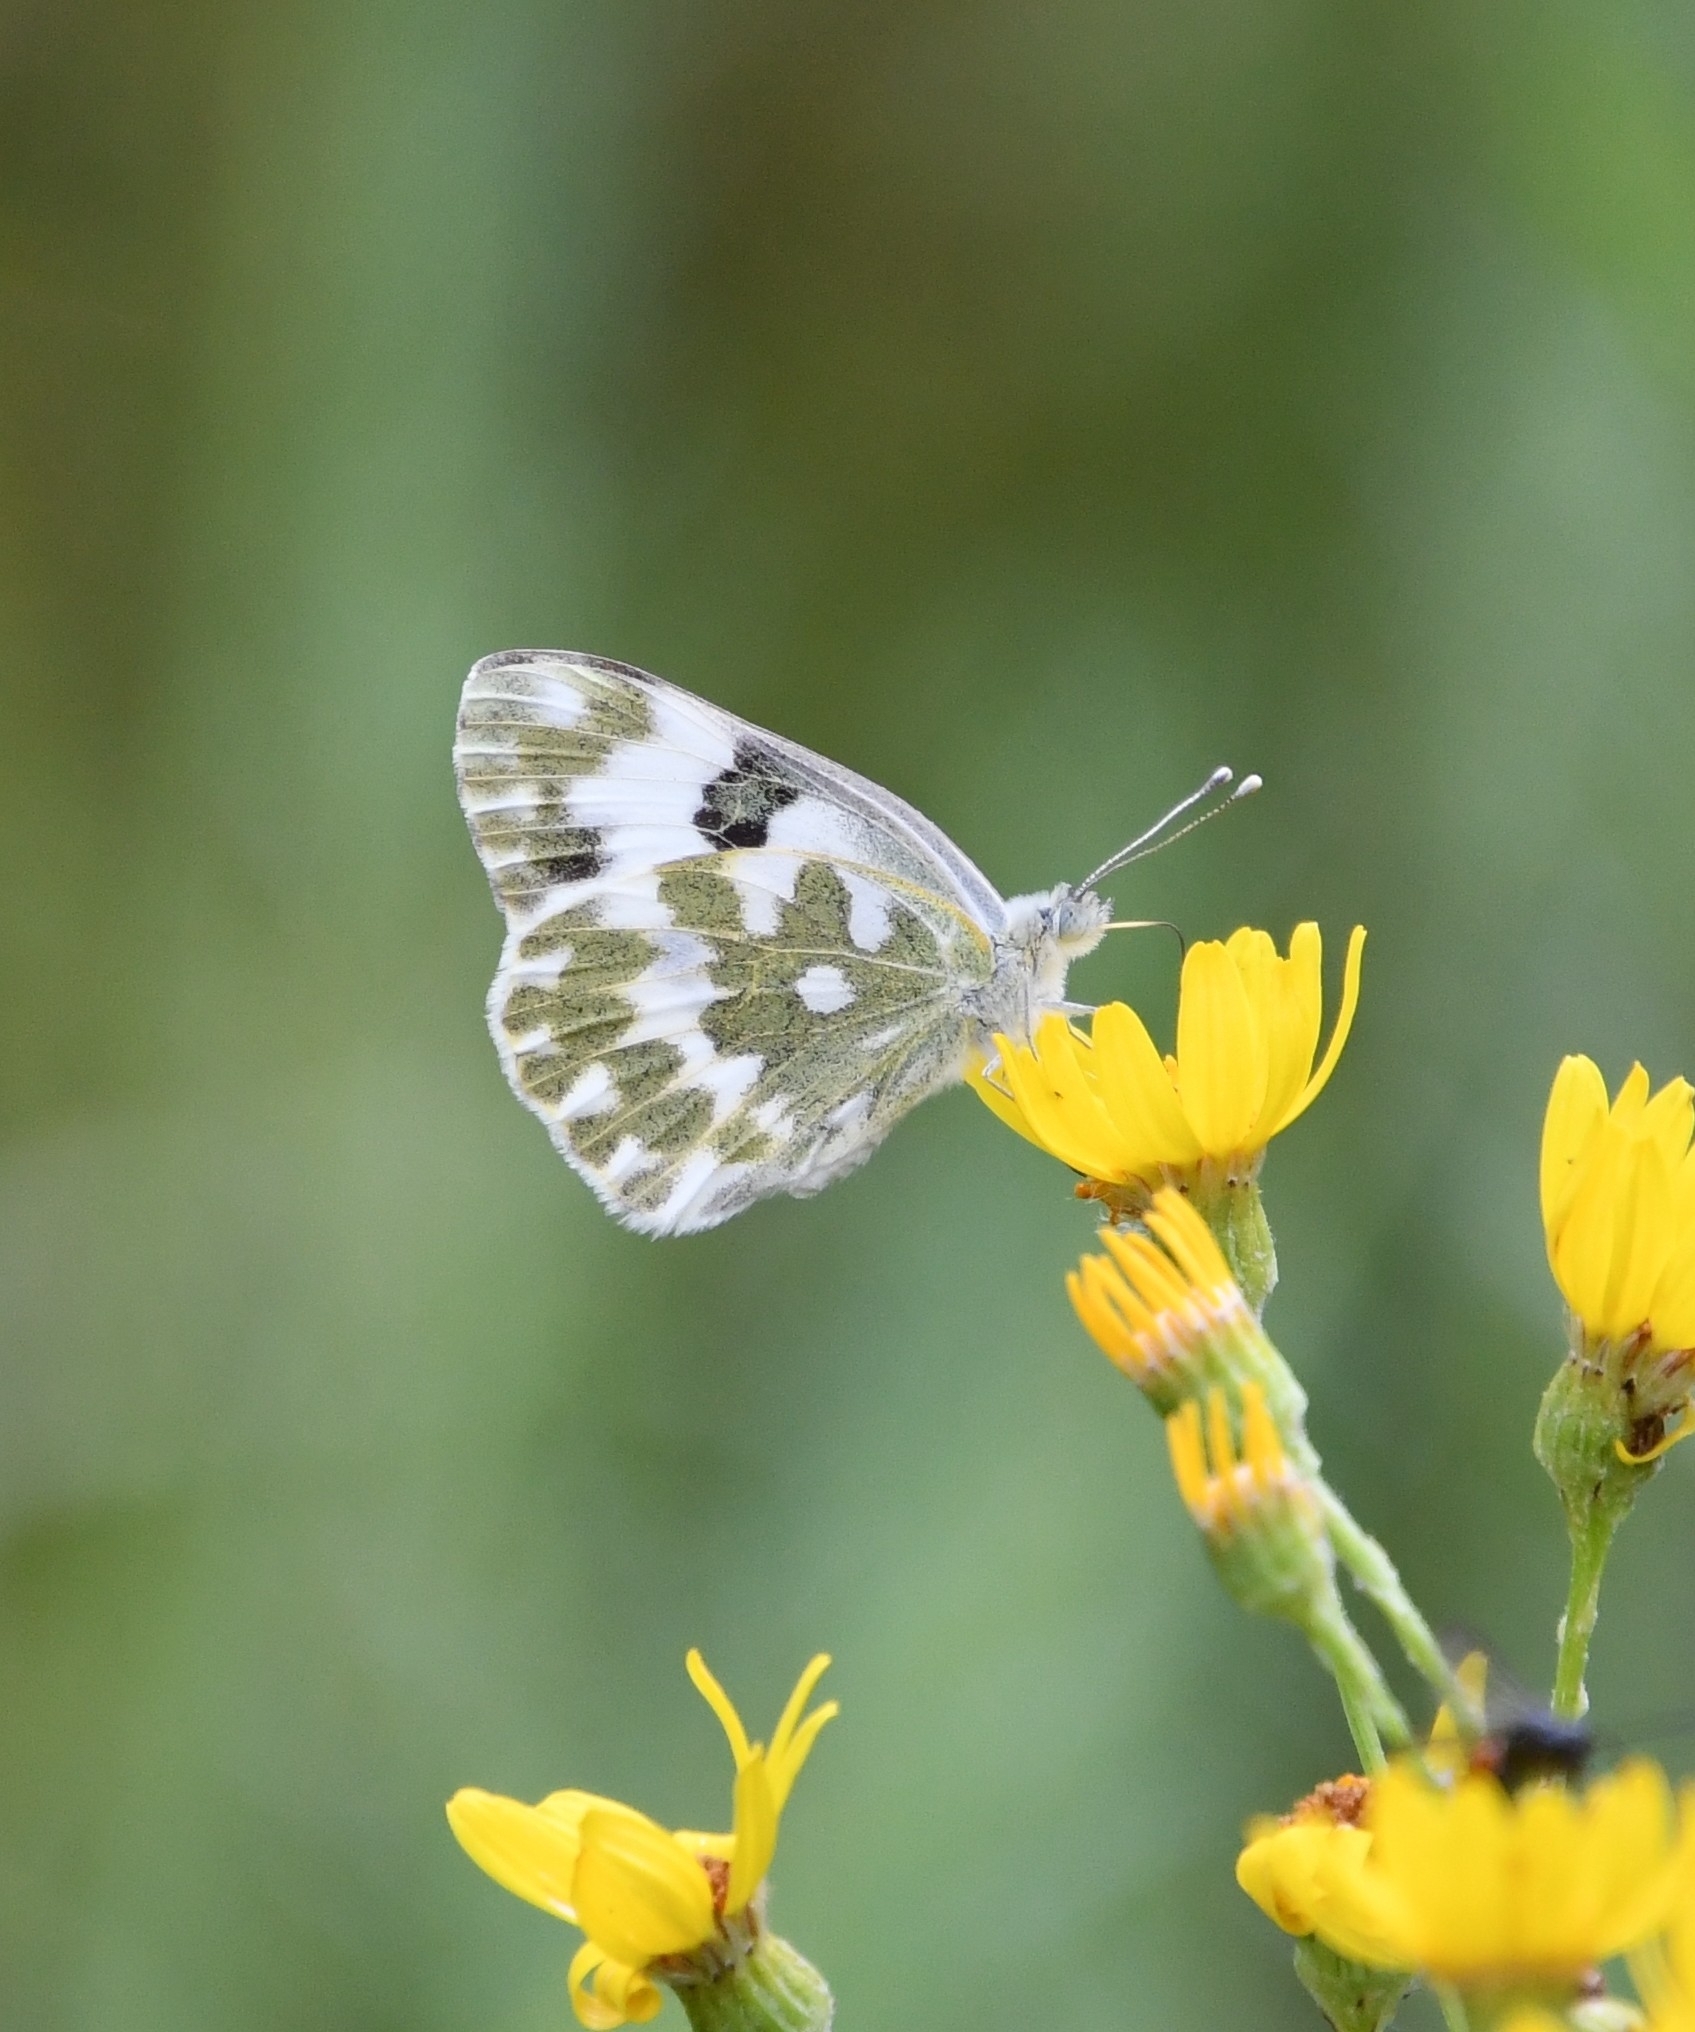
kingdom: Animalia
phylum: Arthropoda
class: Insecta
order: Lepidoptera
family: Pieridae
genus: Pontia
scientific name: Pontia edusa
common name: Eastern bath white
